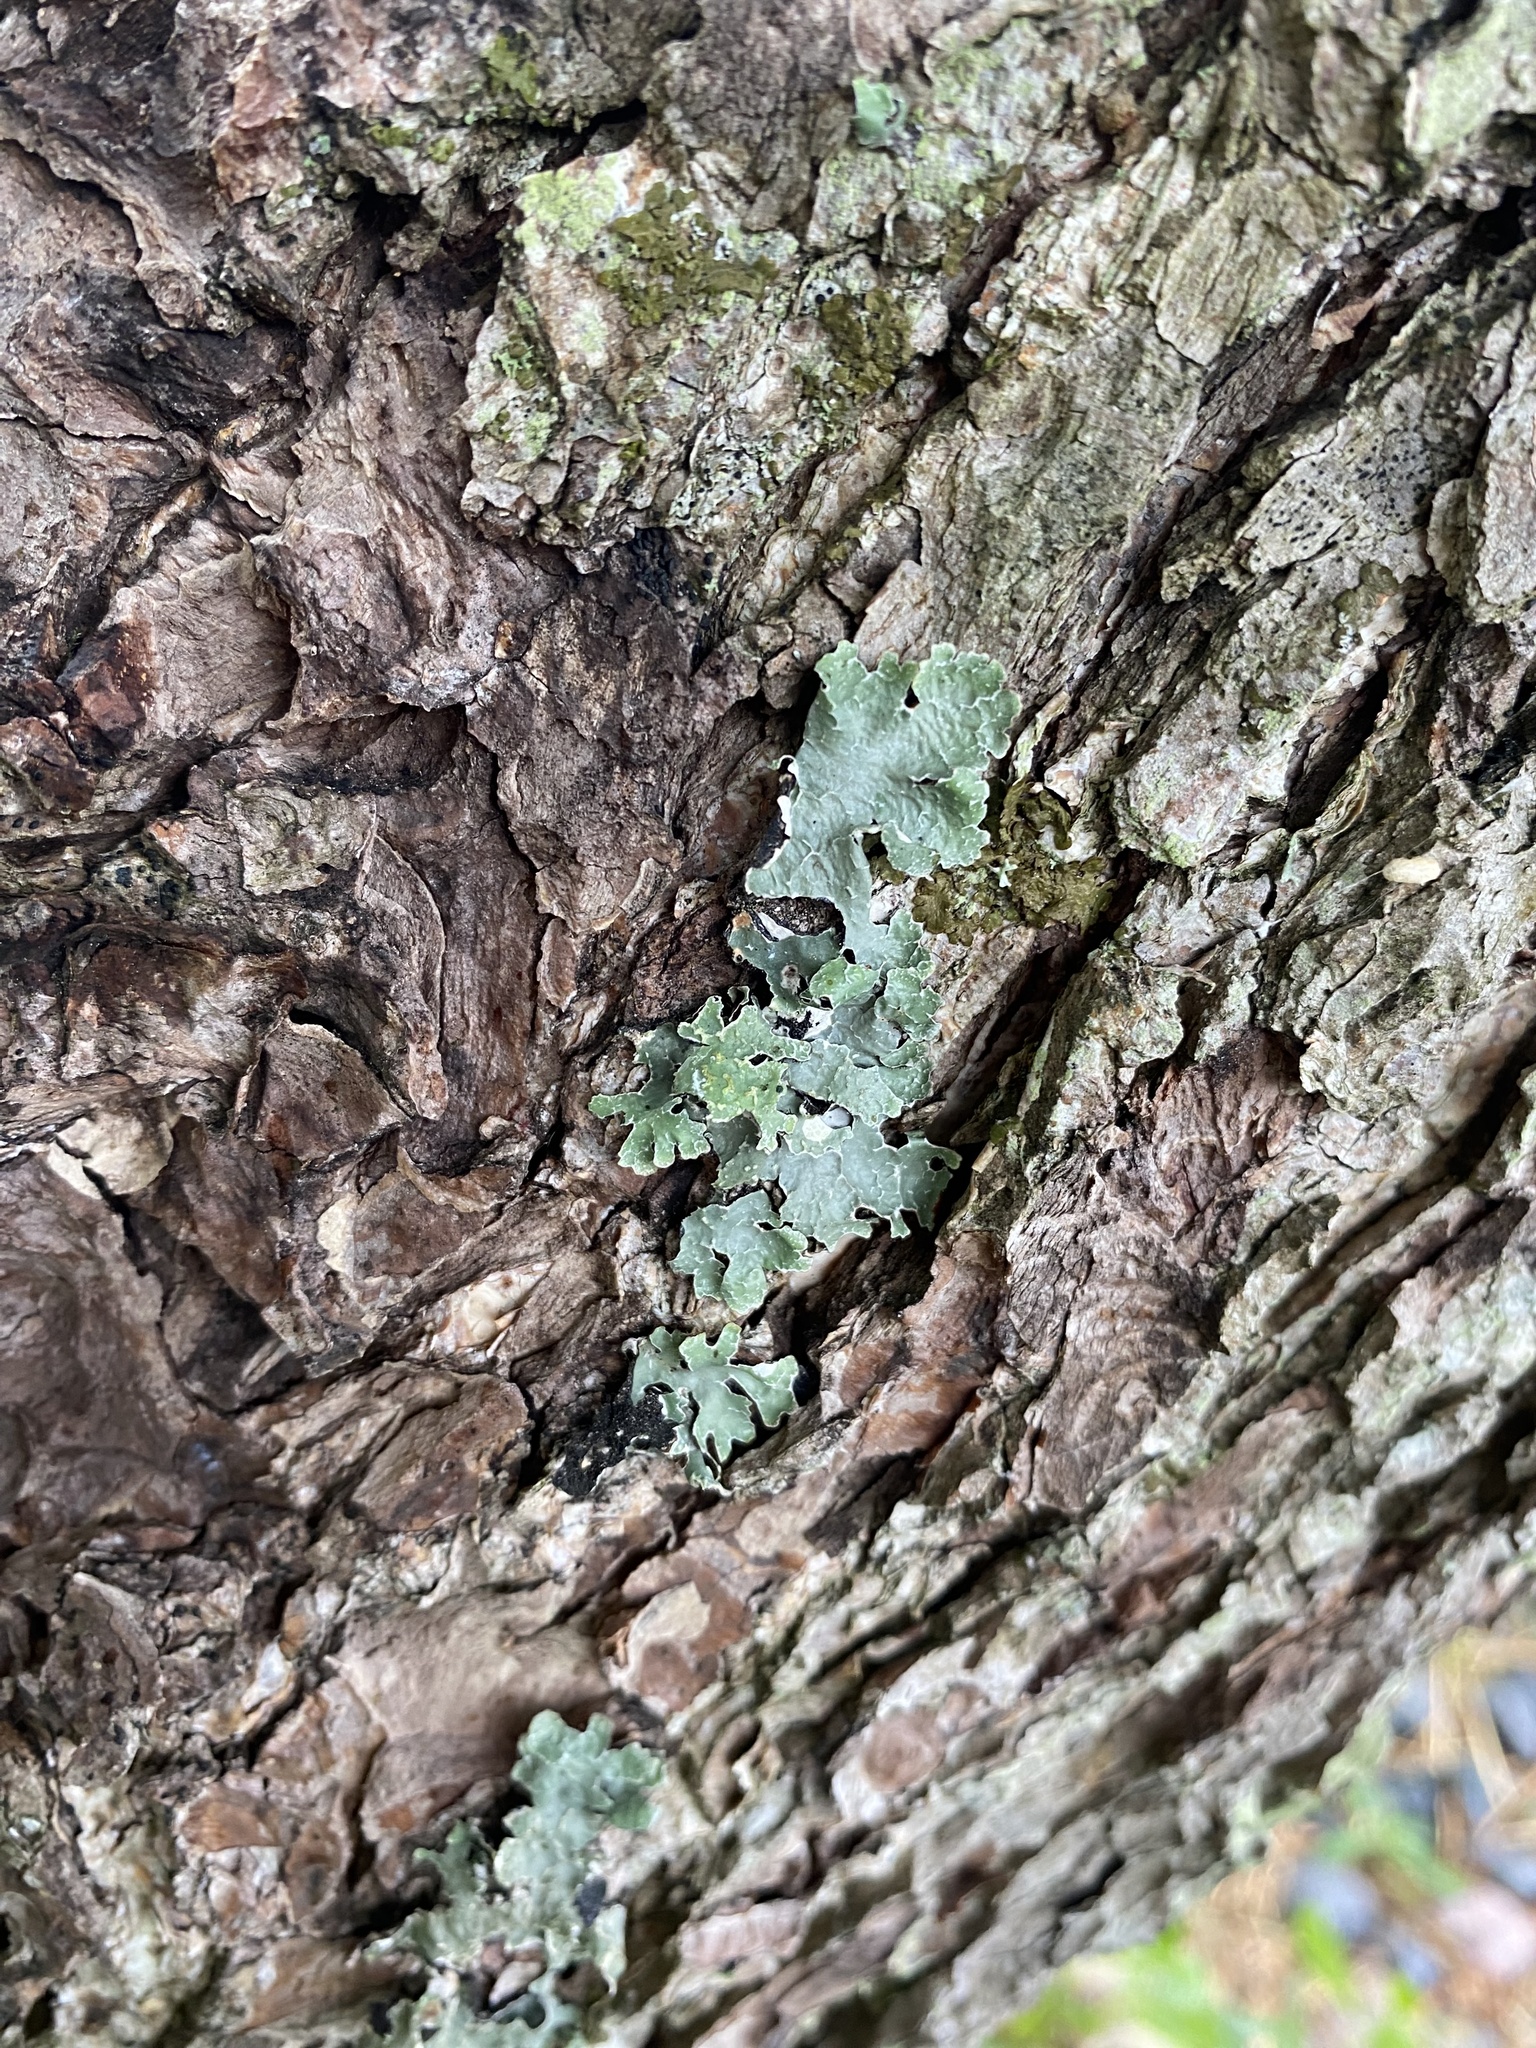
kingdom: Fungi
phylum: Ascomycota
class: Lecanoromycetes
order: Lecanorales
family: Parmeliaceae
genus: Parmelia
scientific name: Parmelia sulcata
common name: Netted shield lichen
